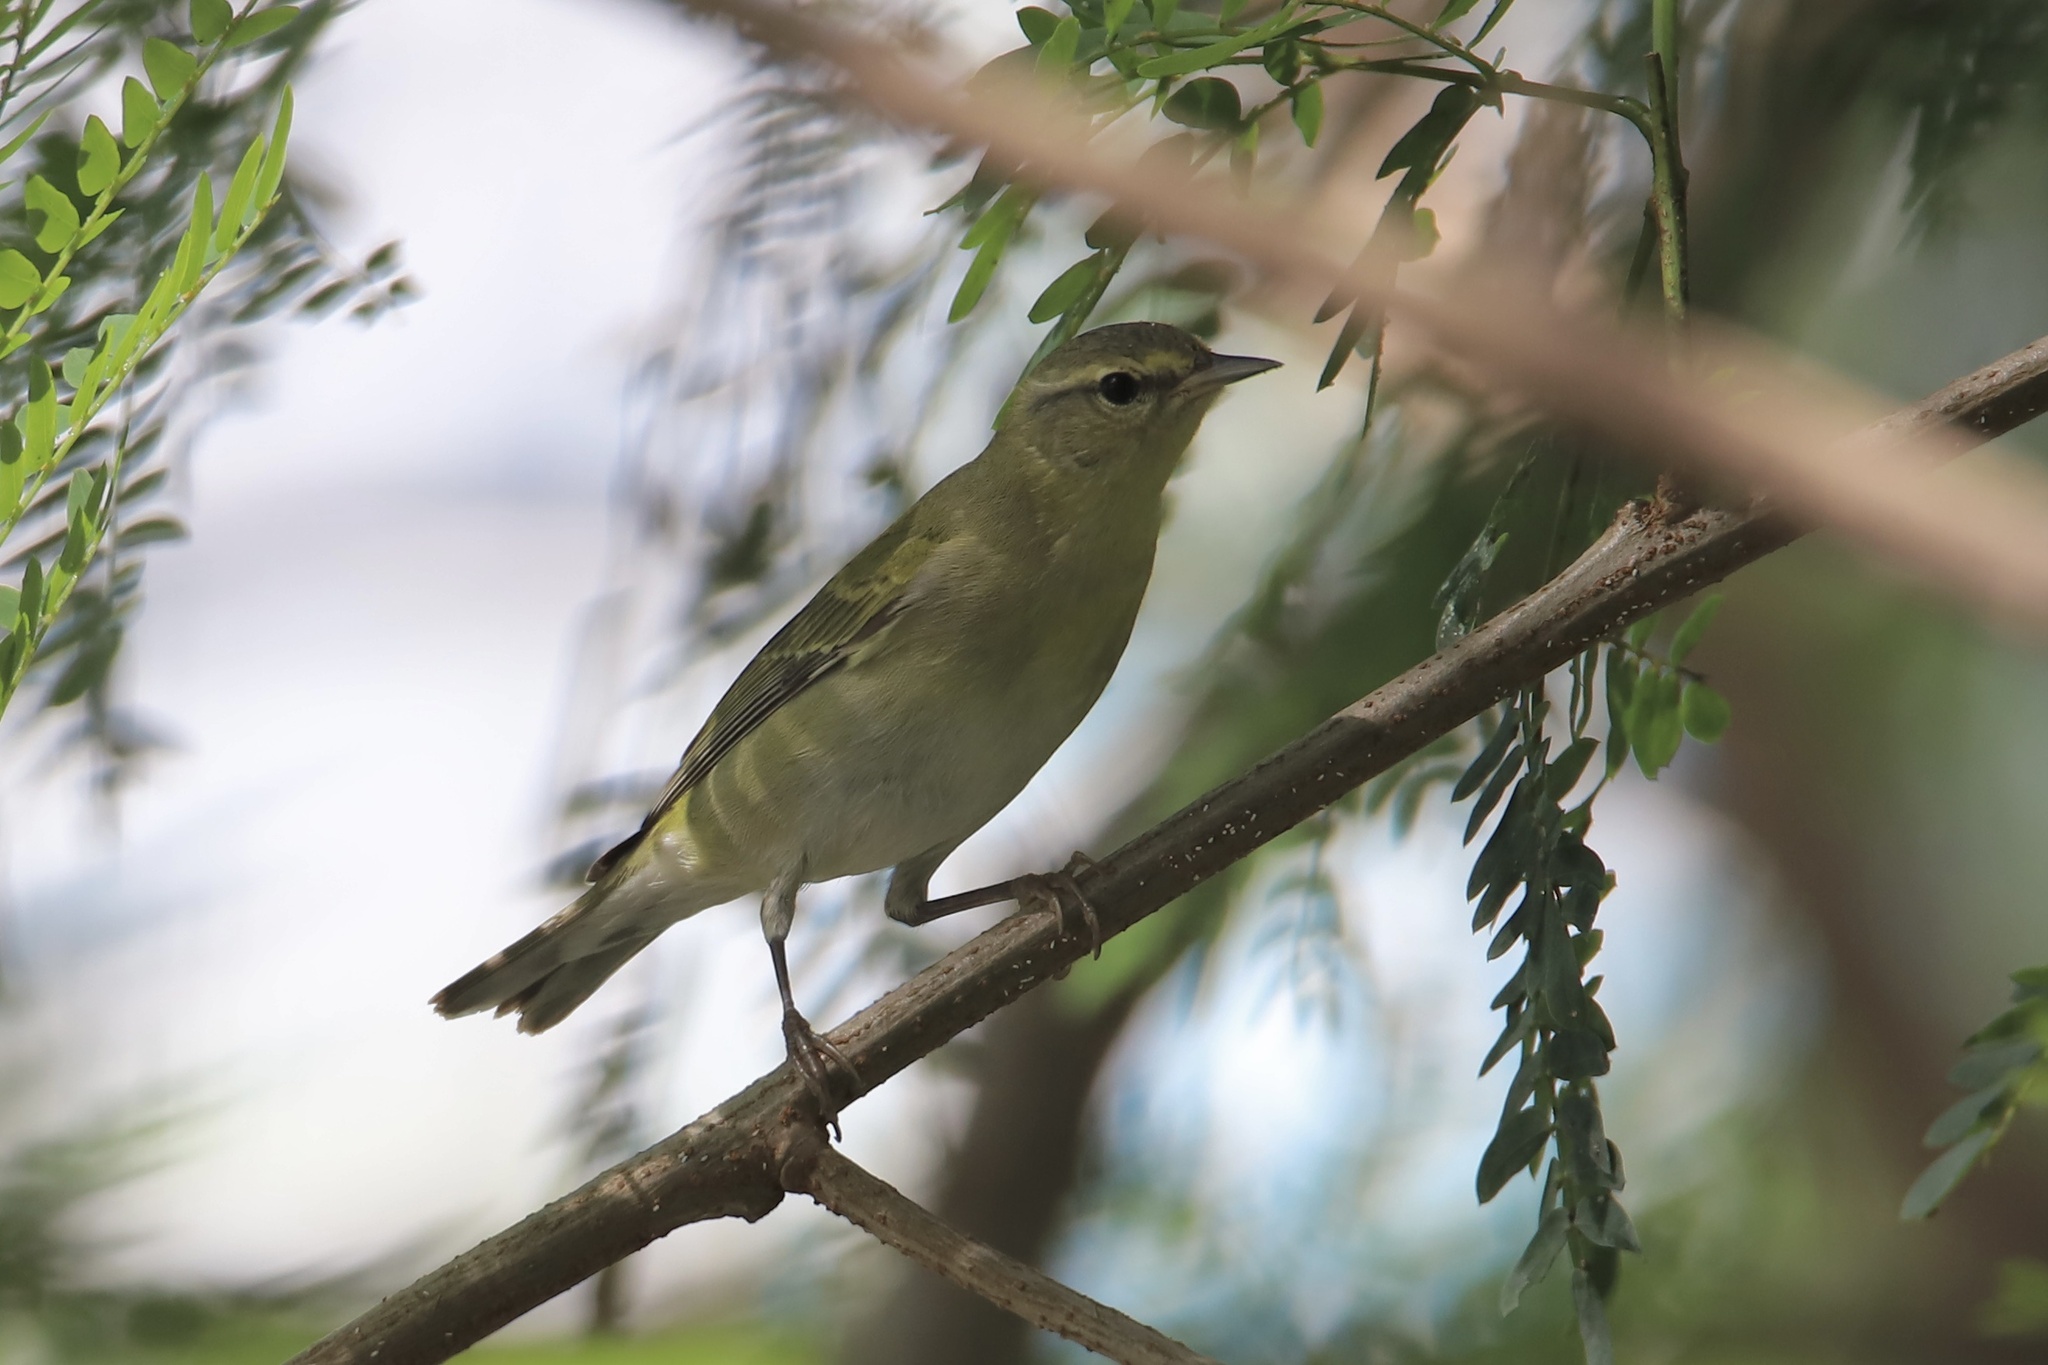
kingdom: Animalia
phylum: Chordata
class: Aves
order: Passeriformes
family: Parulidae
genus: Leiothlypis
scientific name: Leiothlypis peregrina
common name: Tennessee warbler
